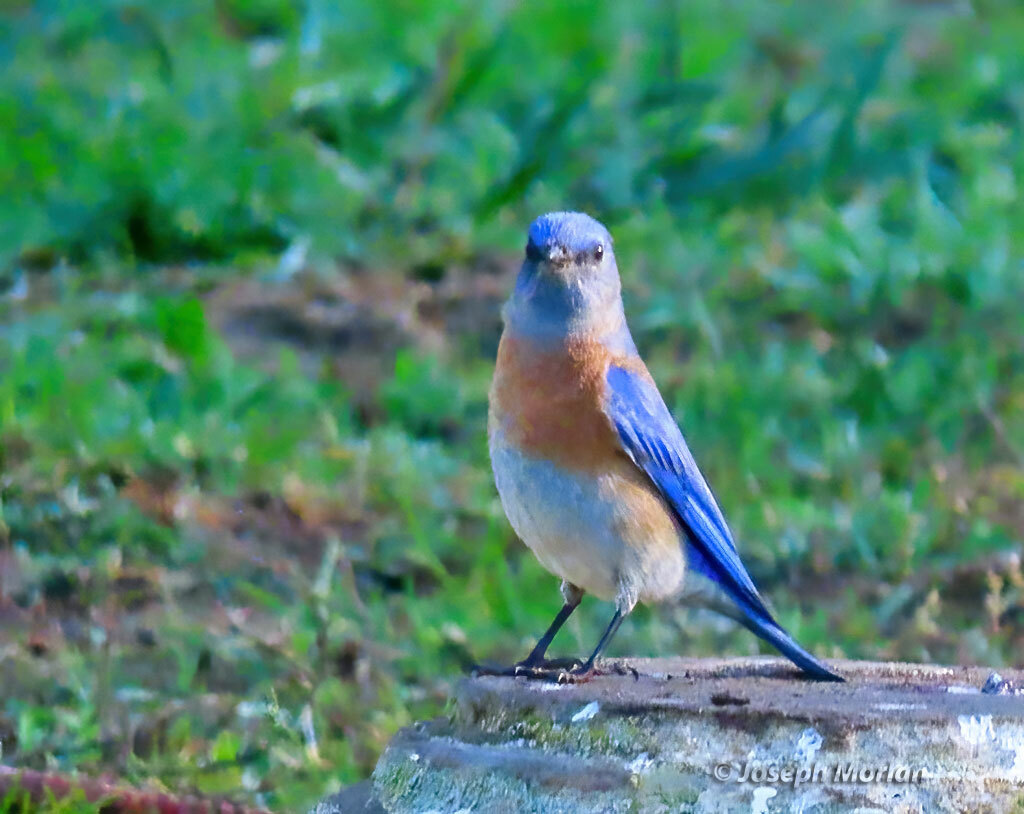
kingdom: Animalia
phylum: Chordata
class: Aves
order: Passeriformes
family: Turdidae
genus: Sialia
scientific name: Sialia mexicana
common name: Western bluebird
